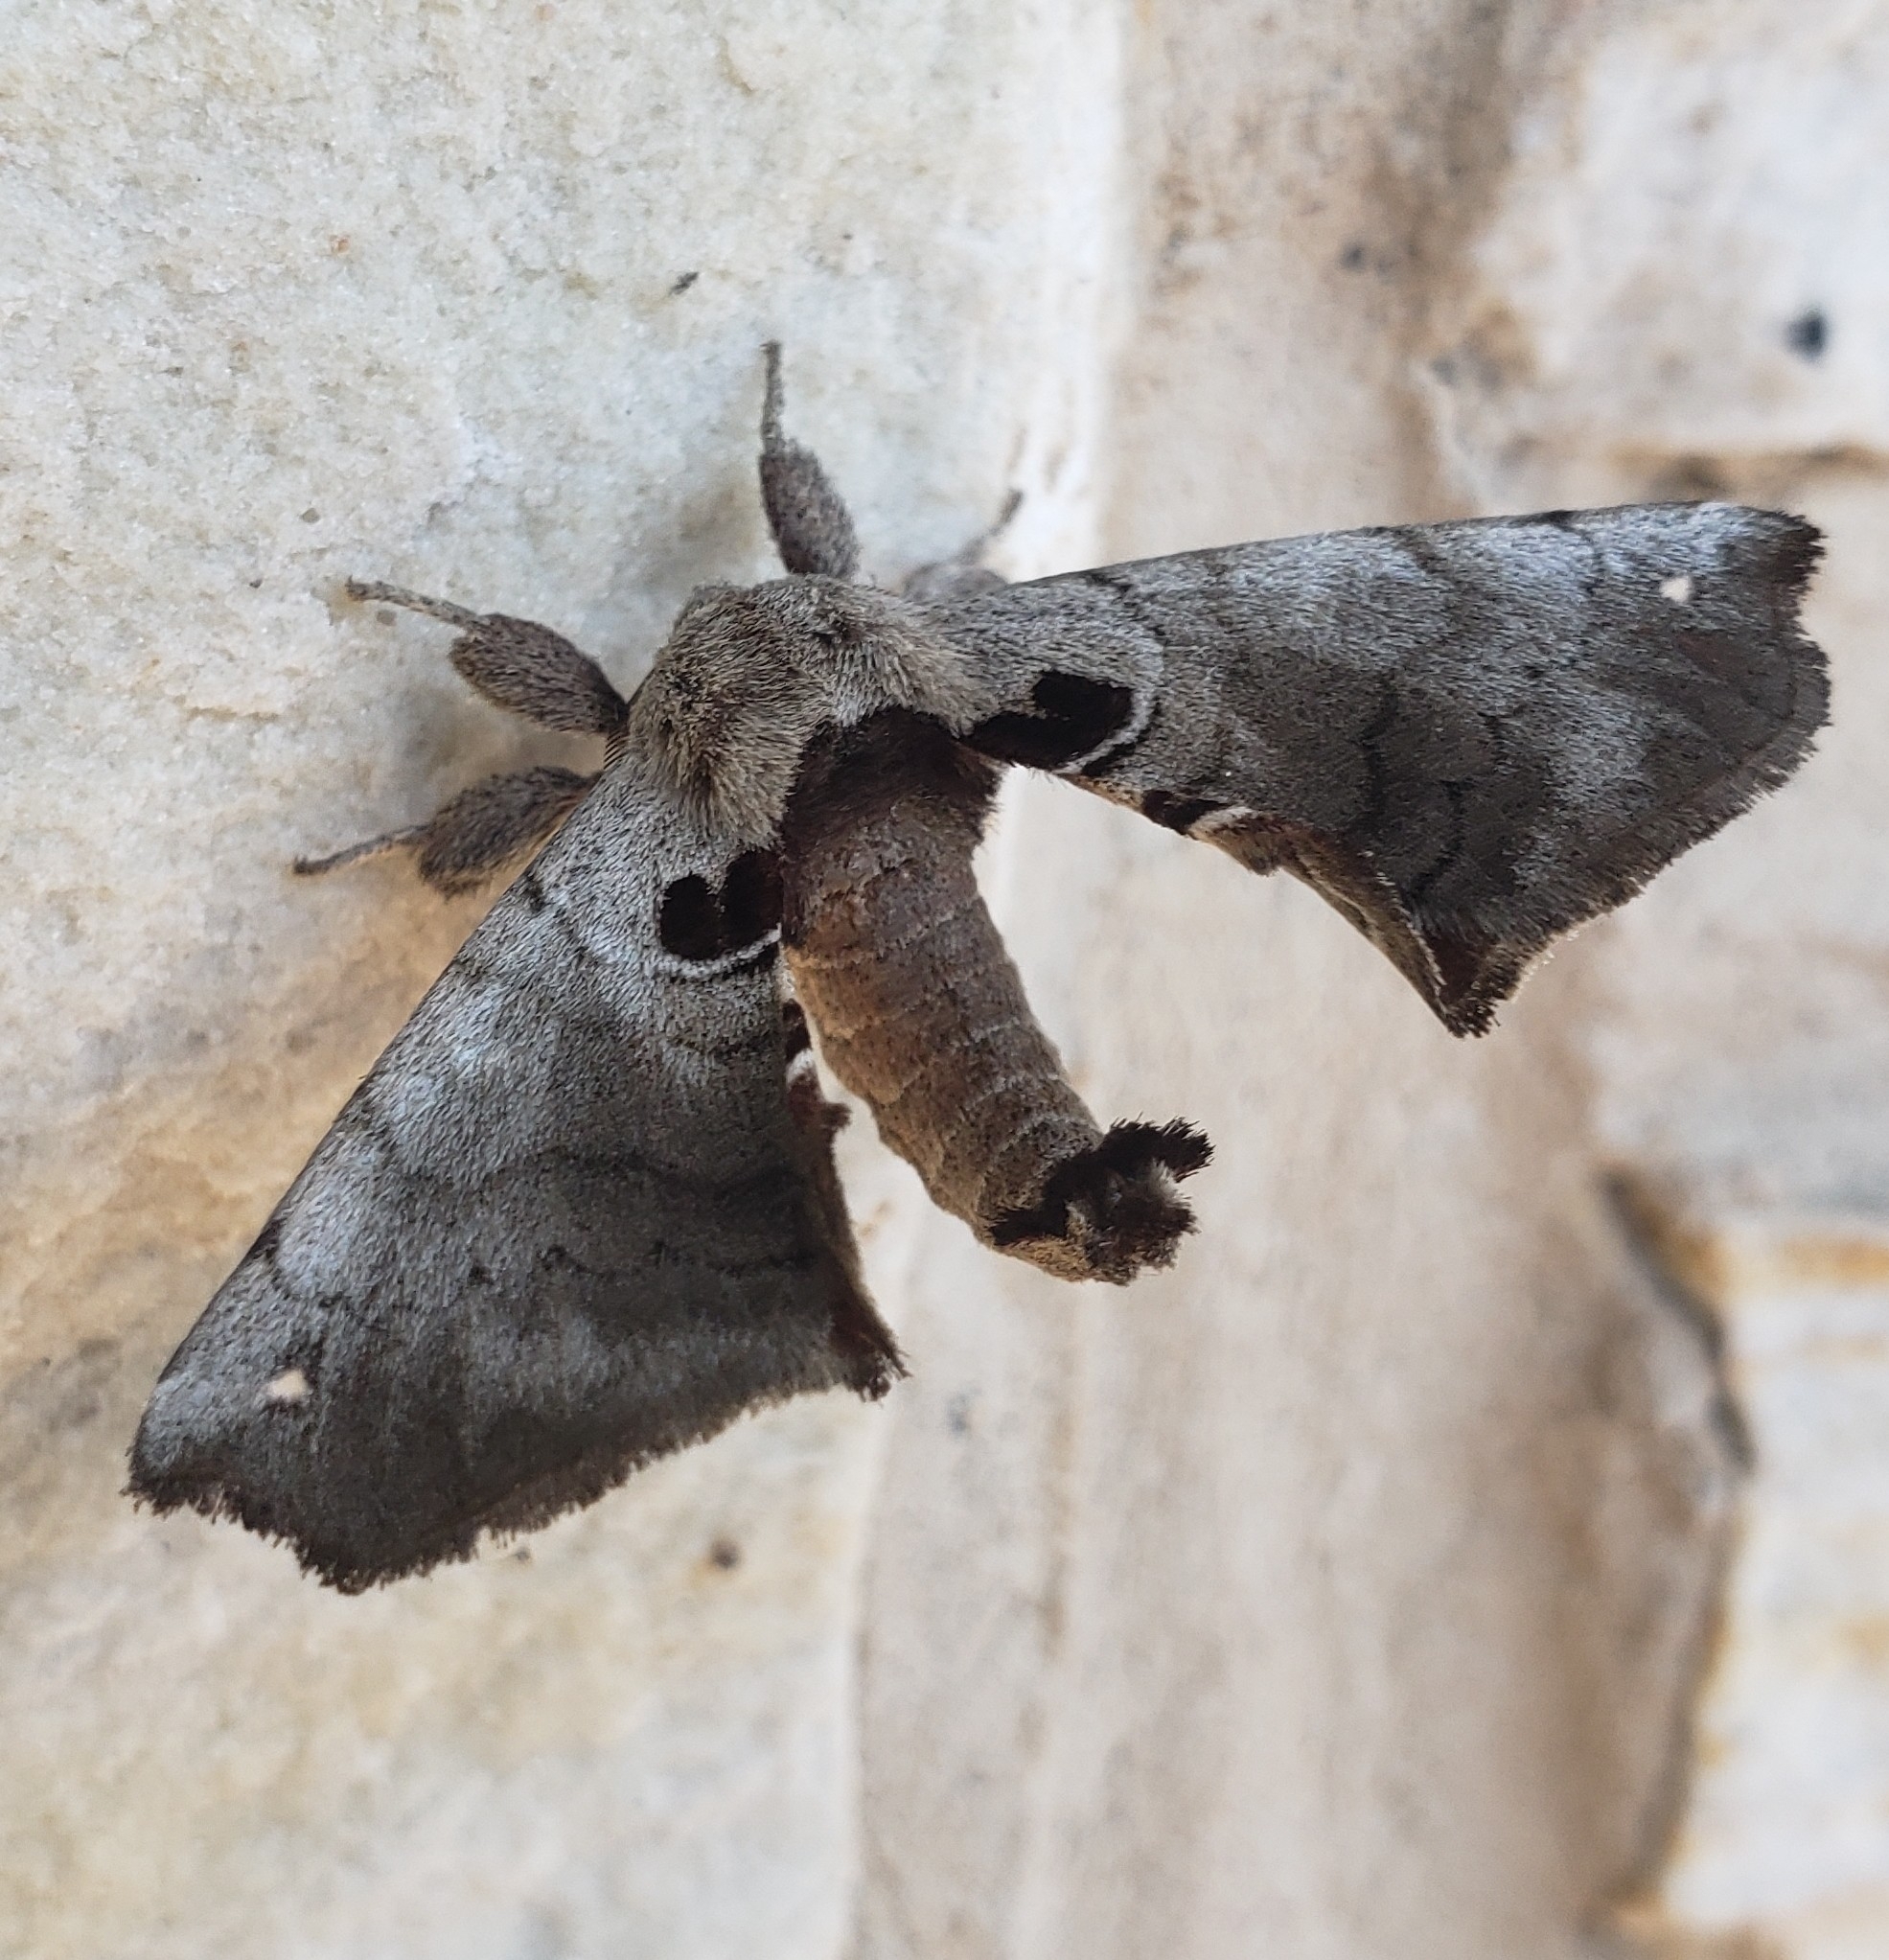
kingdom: Animalia
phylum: Arthropoda
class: Insecta
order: Lepidoptera
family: Apatelodidae
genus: Hygrochroa
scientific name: Hygrochroa Apatelodes torrefacta
